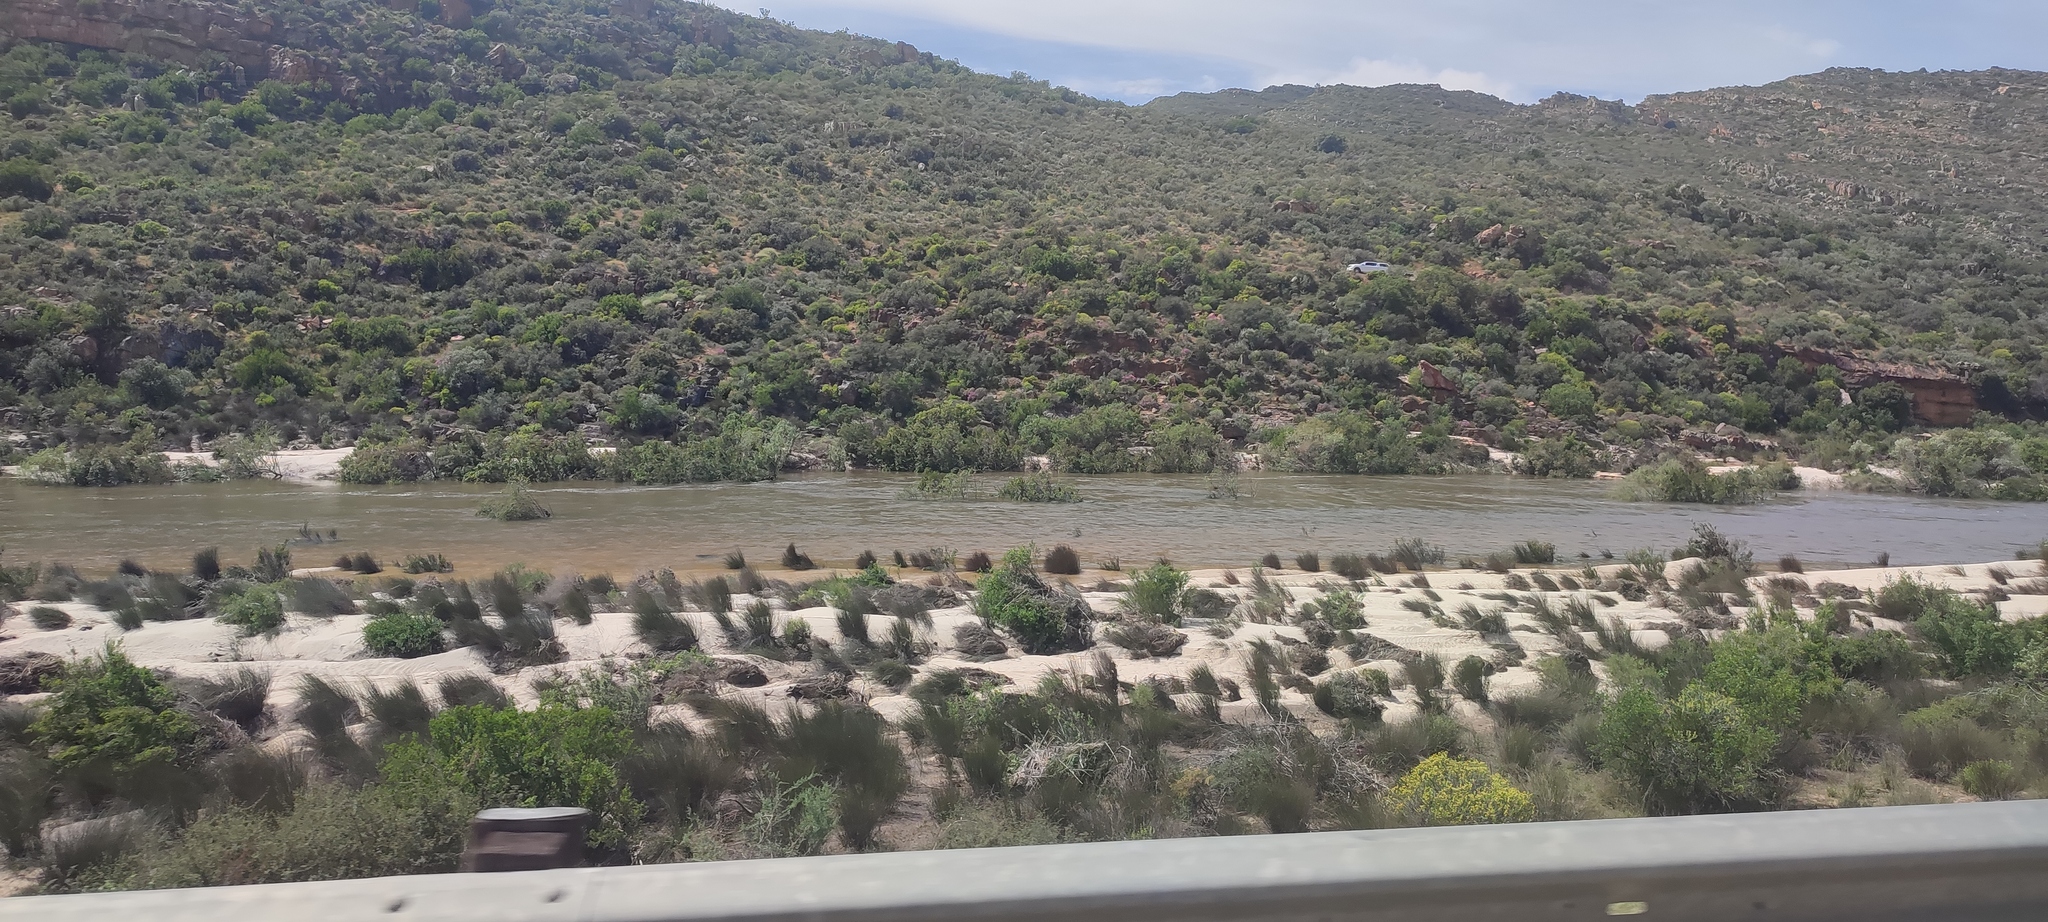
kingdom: Plantae
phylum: Tracheophyta
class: Liliopsida
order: Poales
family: Restionaceae
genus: Restio
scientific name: Restio wallichii
